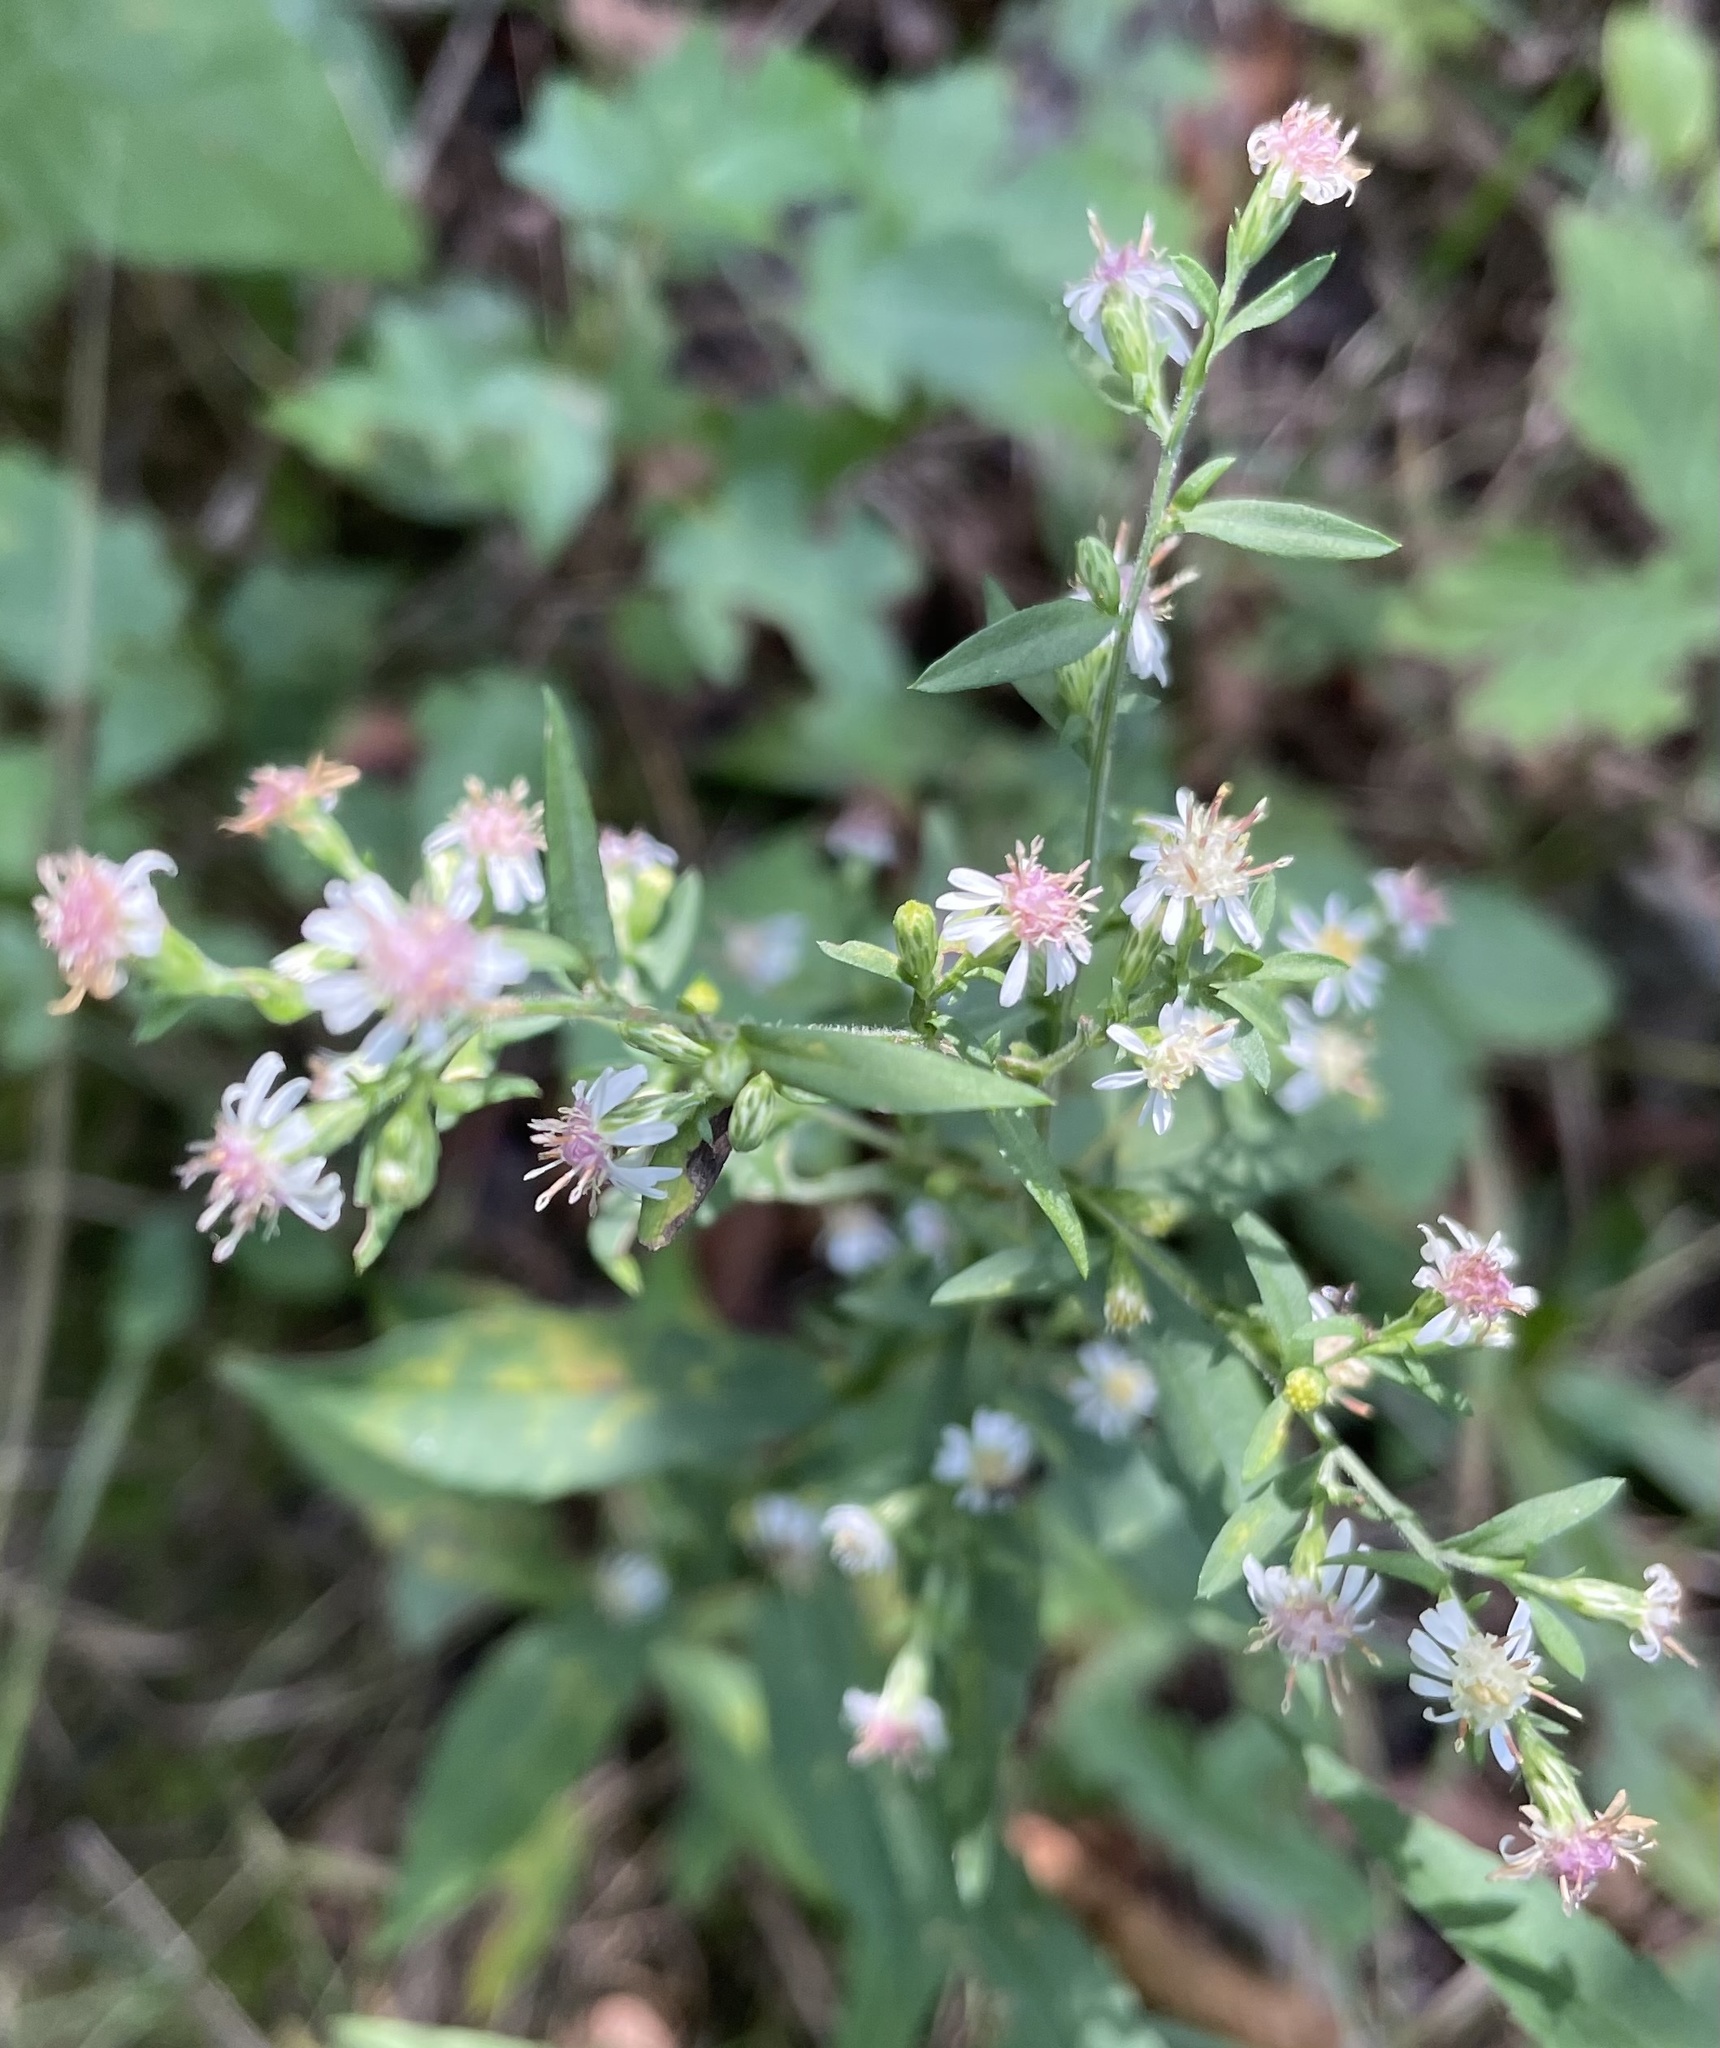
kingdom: Plantae
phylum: Tracheophyta
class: Magnoliopsida
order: Asterales
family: Asteraceae
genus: Symphyotrichum
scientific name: Symphyotrichum lateriflorum
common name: Calico aster
